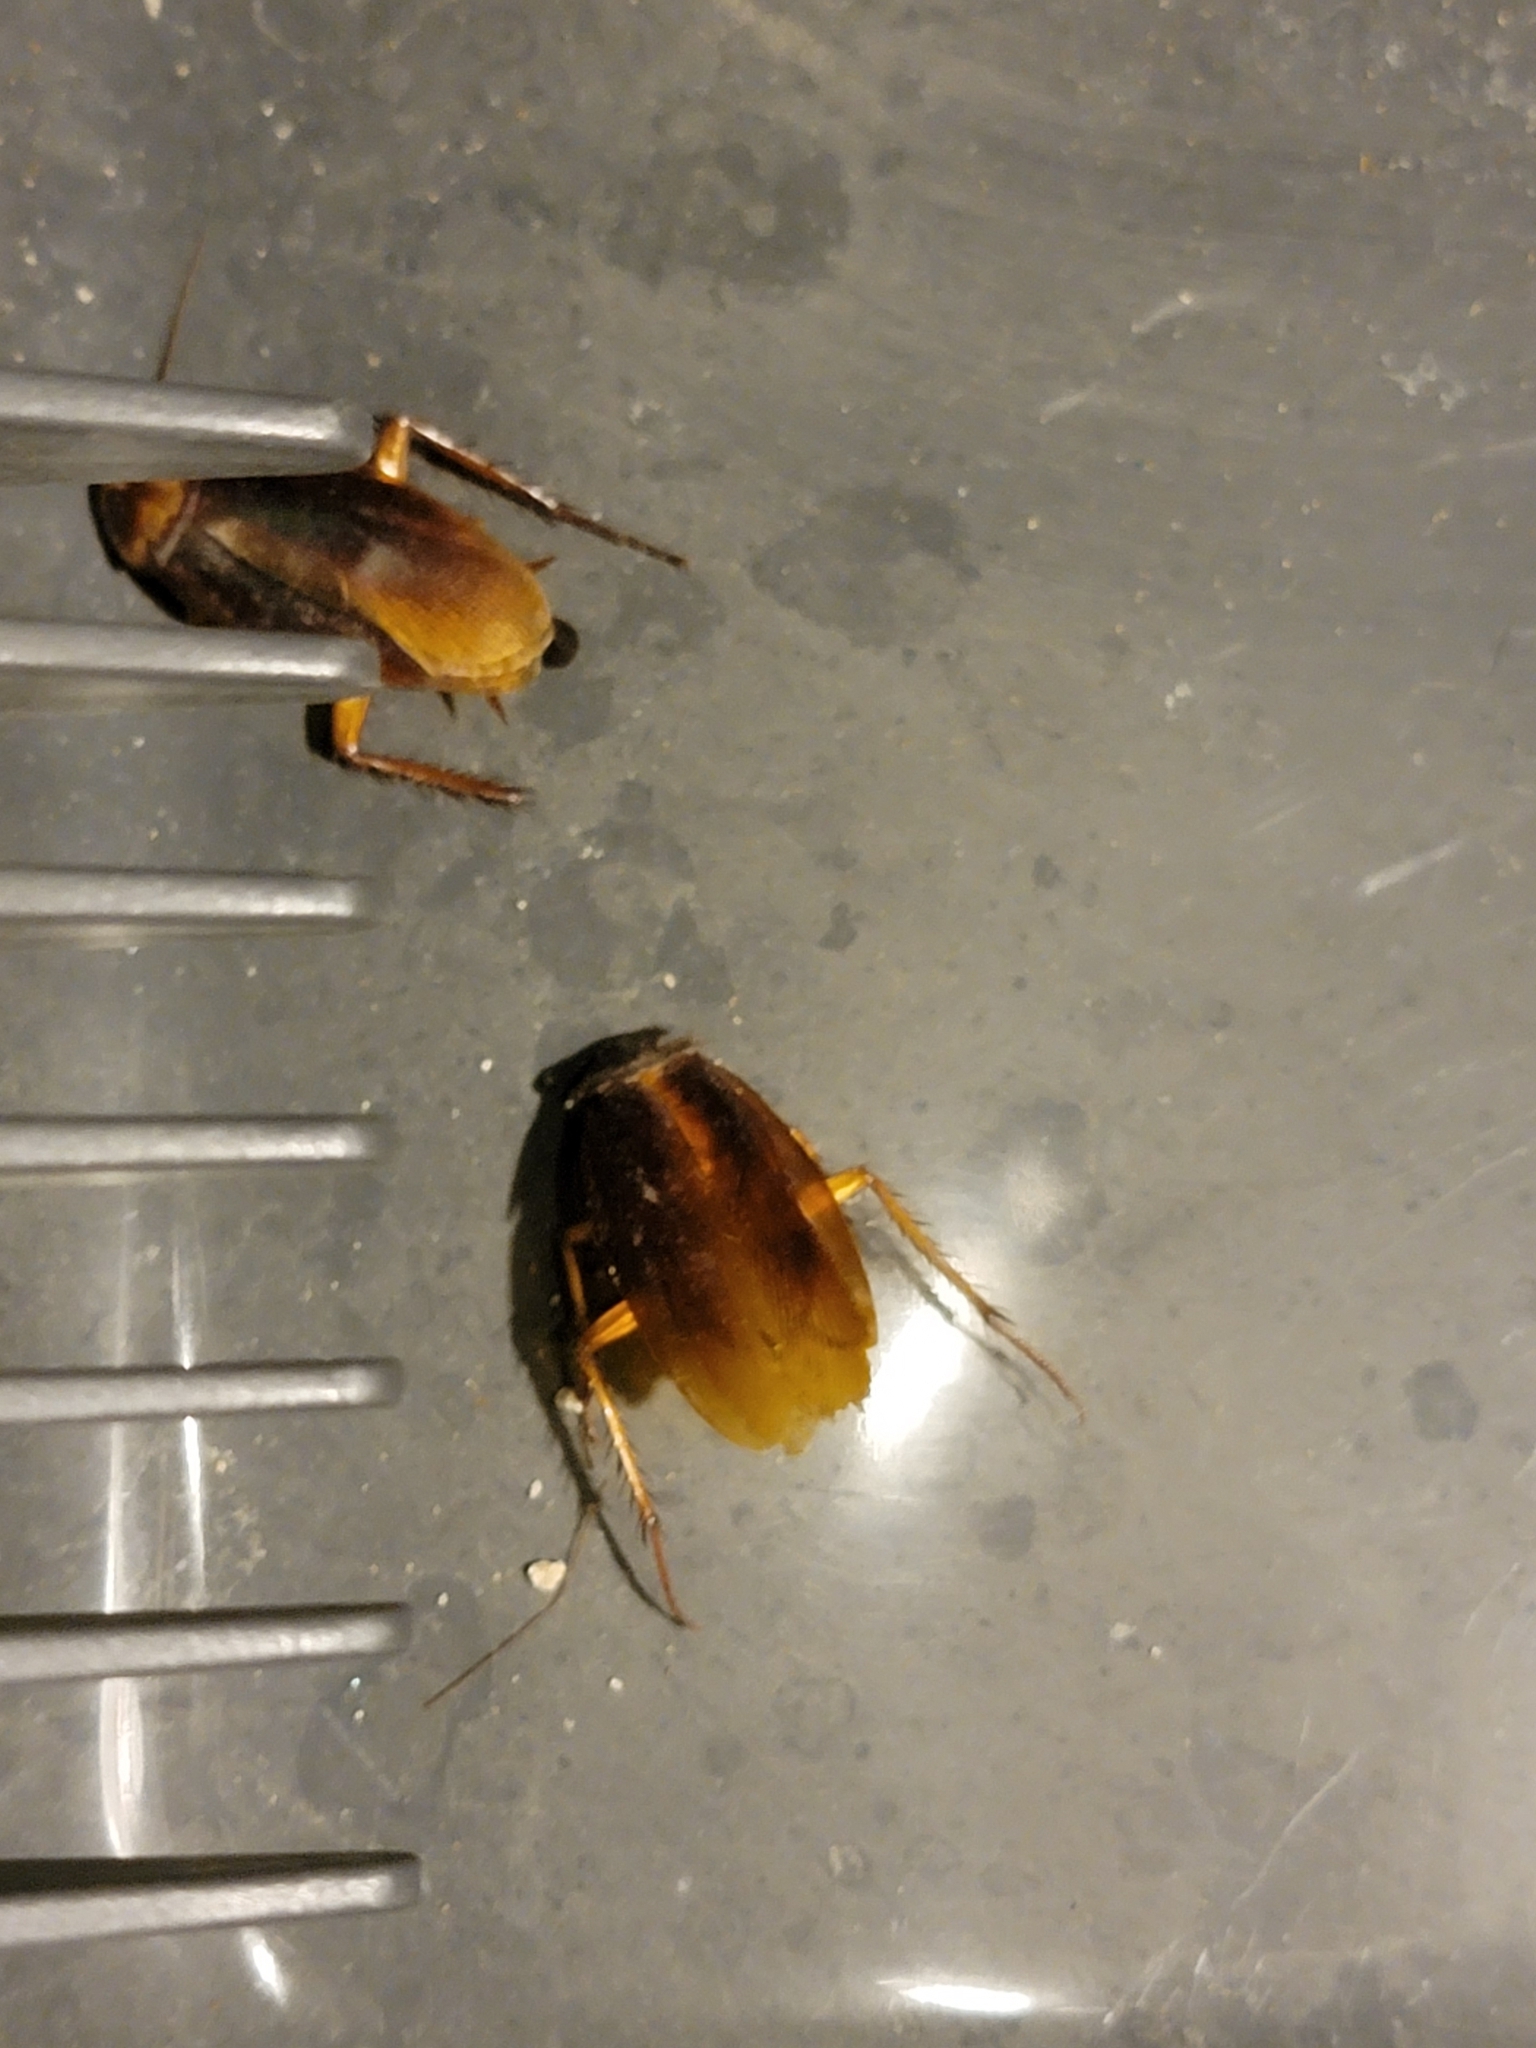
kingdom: Animalia
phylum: Arthropoda
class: Insecta
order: Blattodea
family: Blattidae
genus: Periplaneta
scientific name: Periplaneta americana
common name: American cockroach
